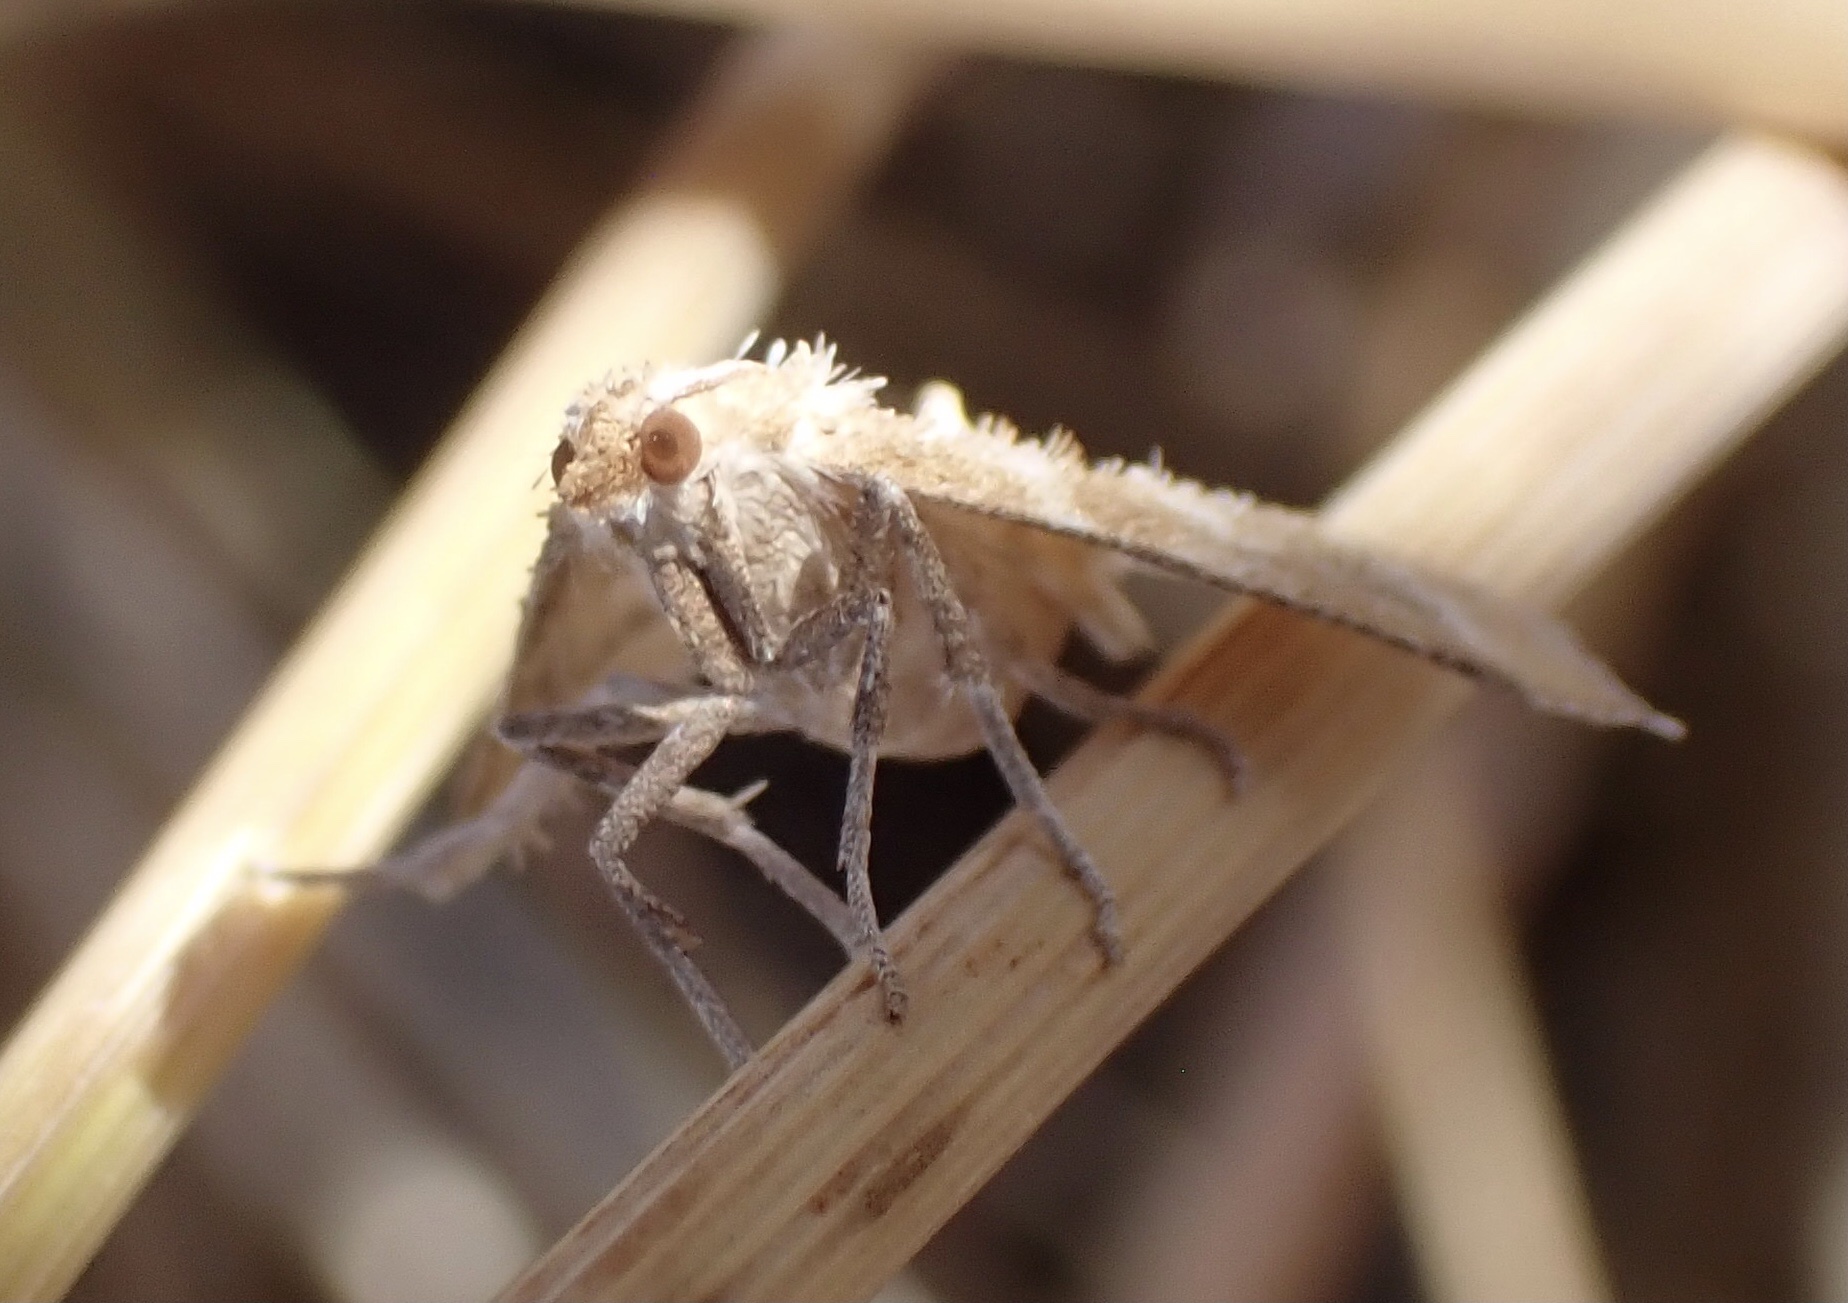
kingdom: Animalia
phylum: Arthropoda
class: Insecta
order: Lepidoptera
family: Crambidae
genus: Metasia
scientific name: Metasia suppandalis
